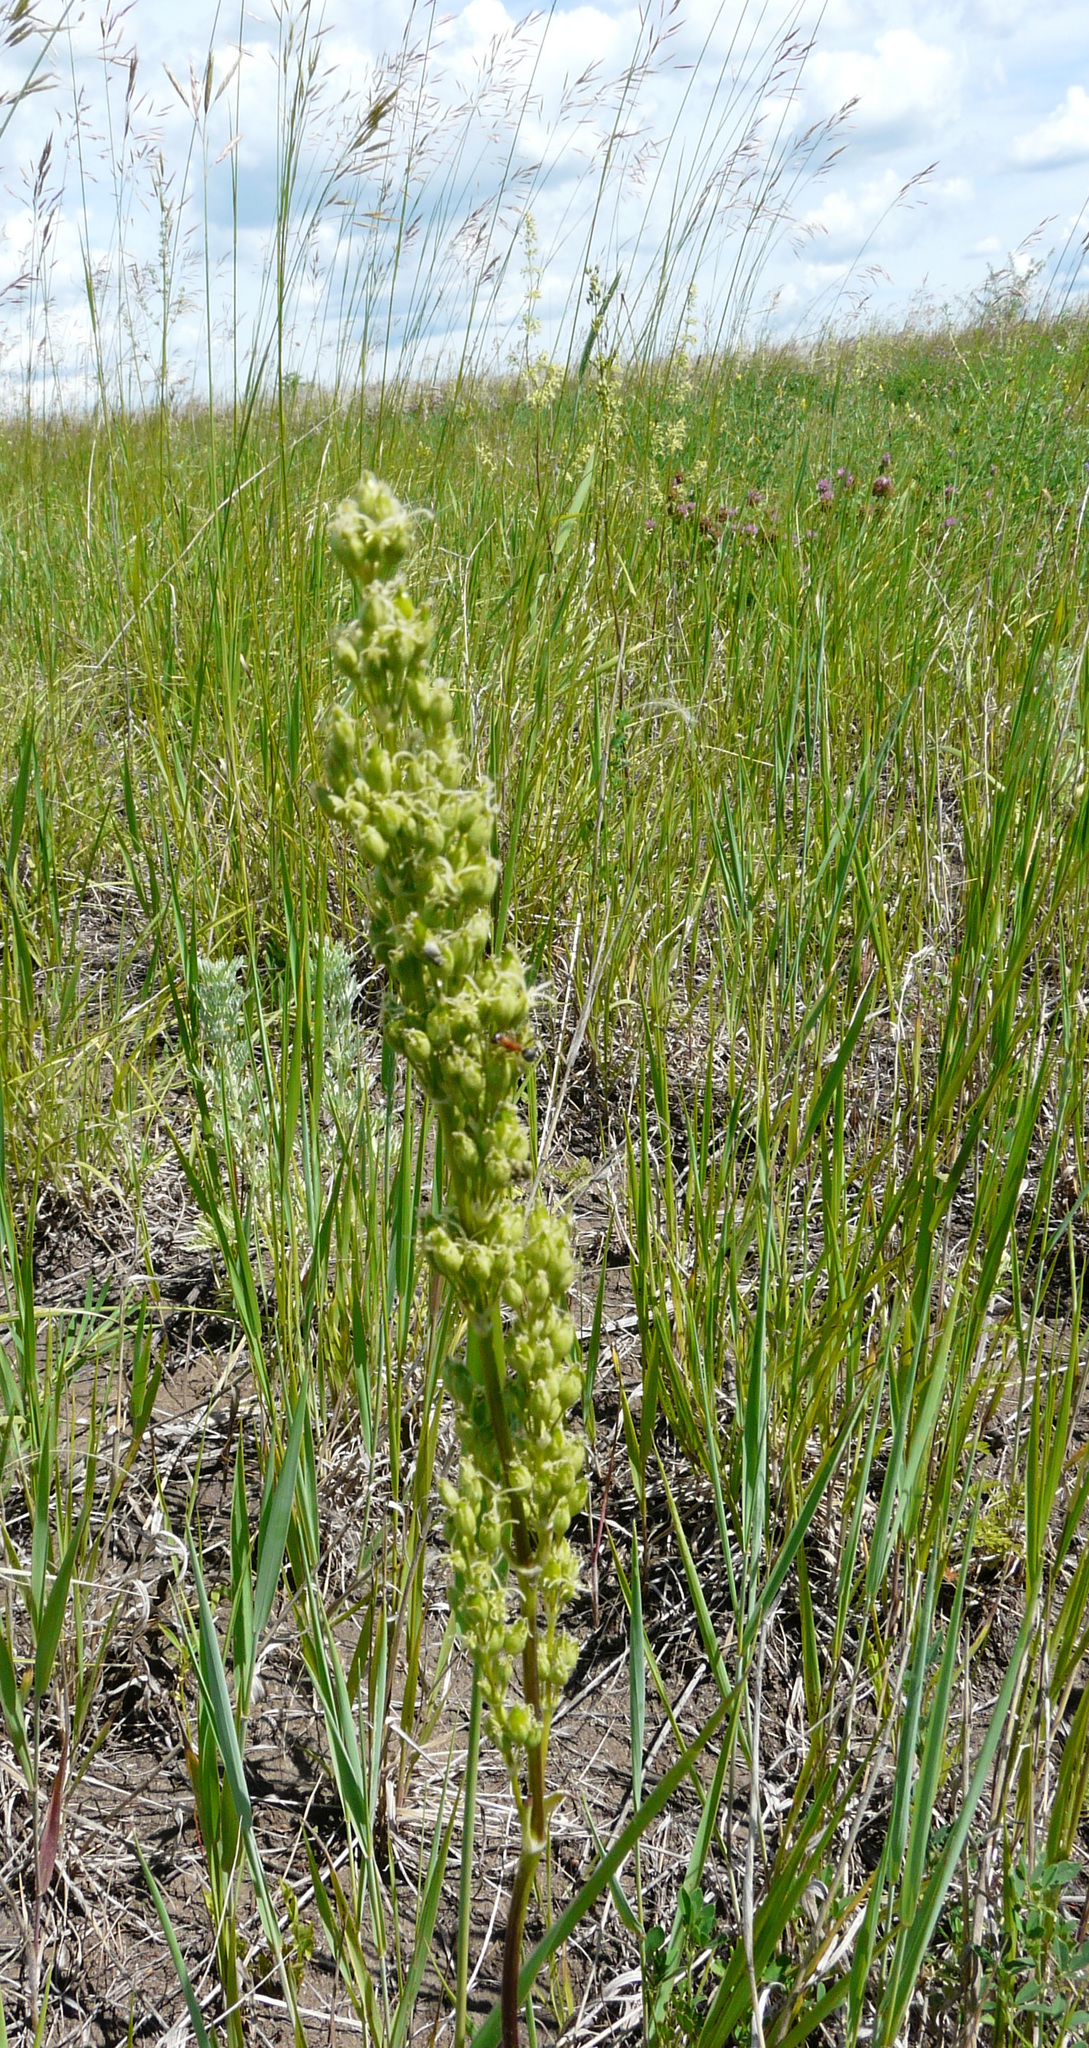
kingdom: Plantae
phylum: Tracheophyta
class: Magnoliopsida
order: Caryophyllales
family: Caryophyllaceae
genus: Silene
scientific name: Silene chersonensis
